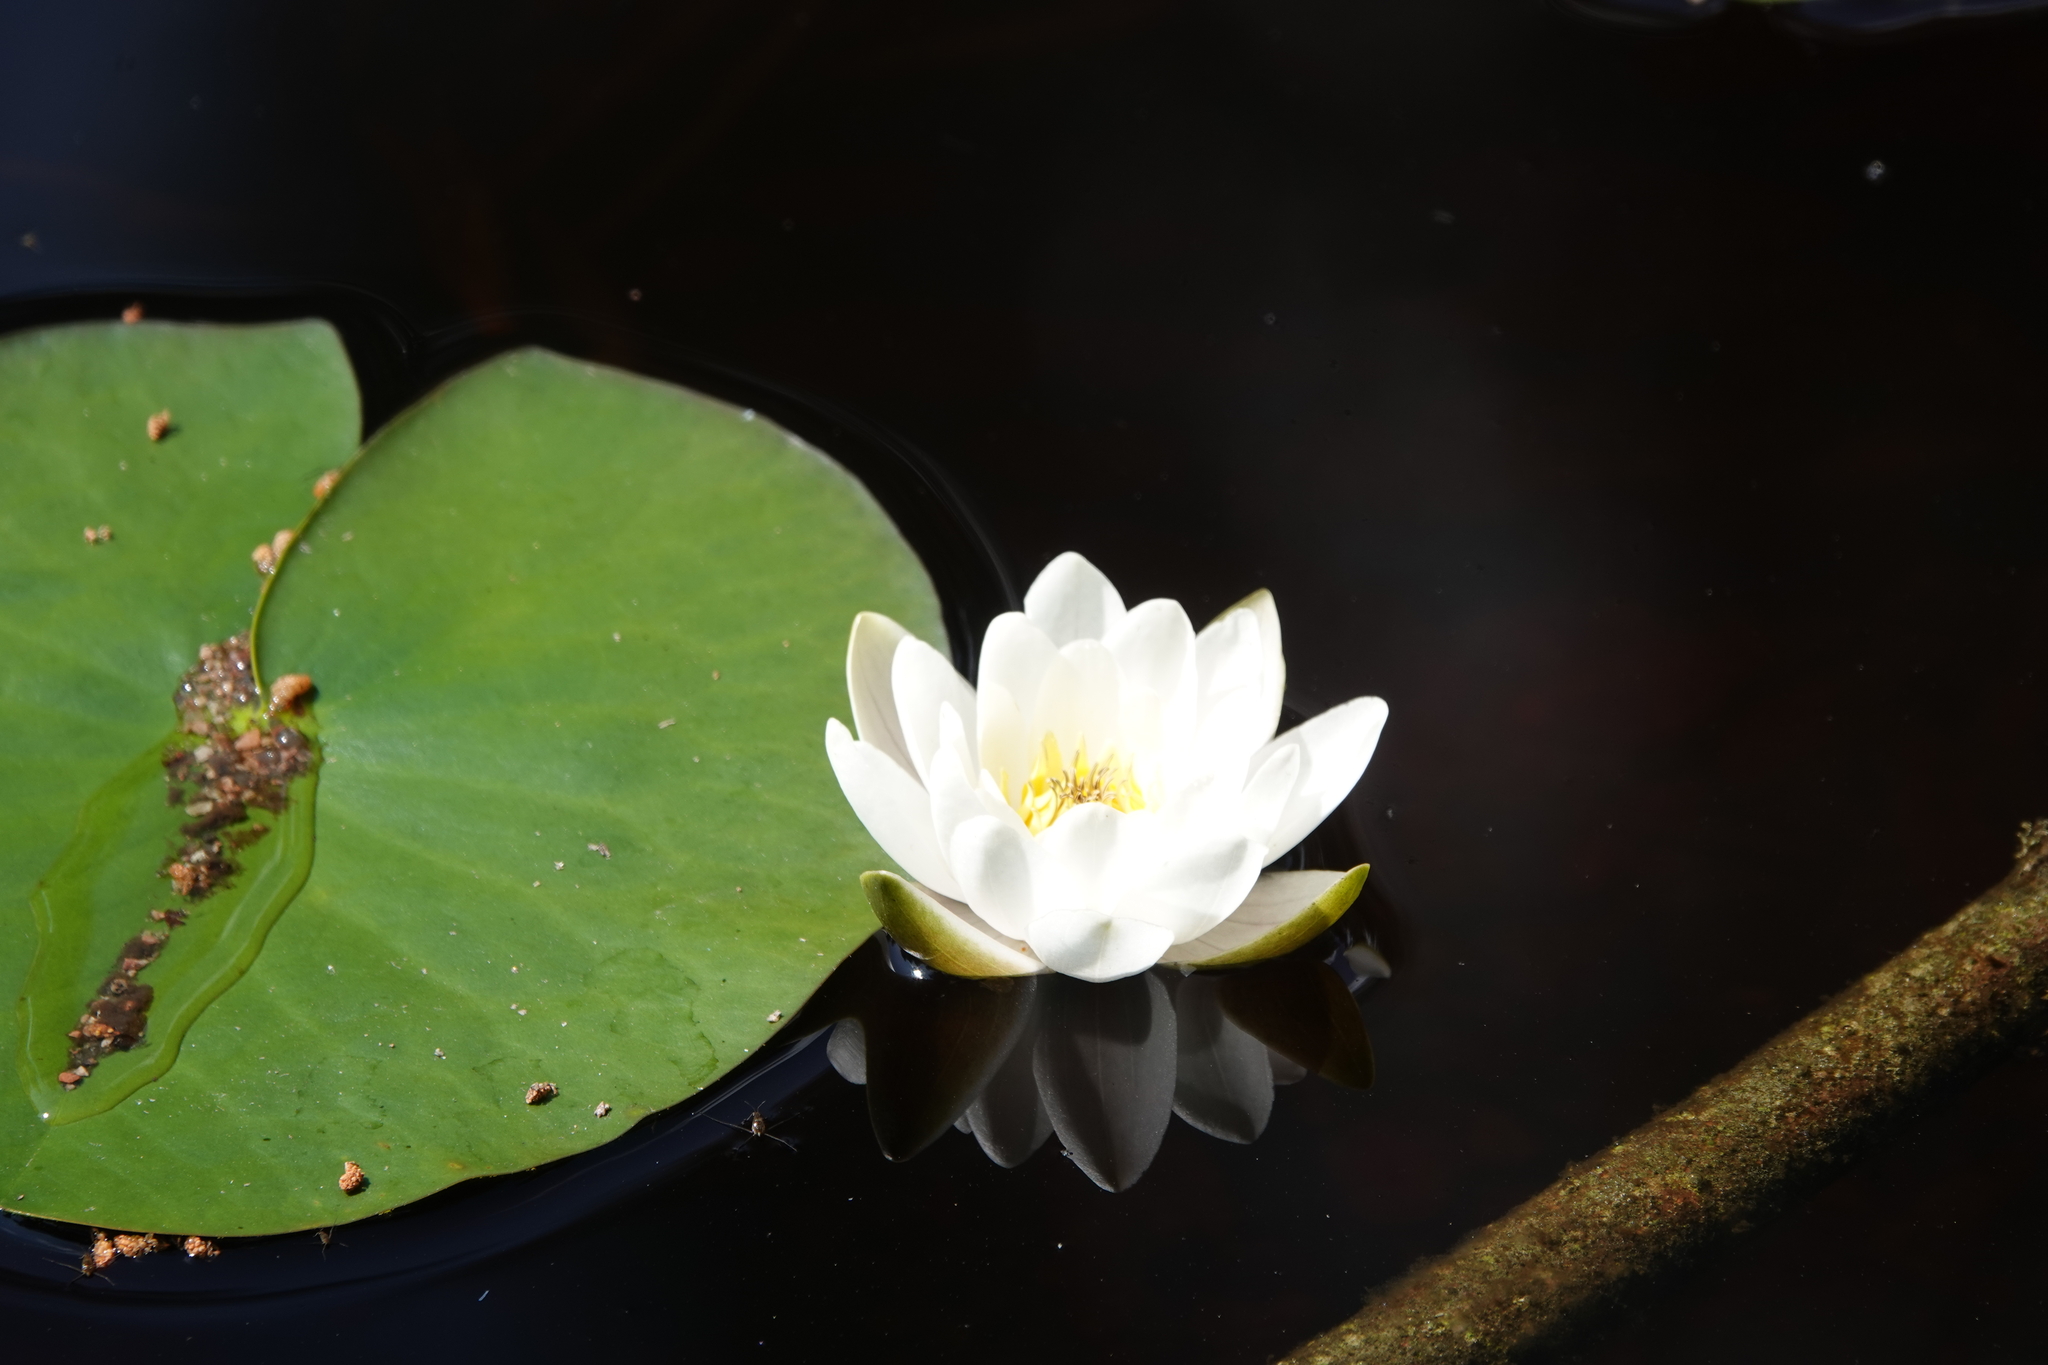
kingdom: Plantae
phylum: Tracheophyta
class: Magnoliopsida
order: Nymphaeales
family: Nymphaeaceae
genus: Nymphaea
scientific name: Nymphaea candida
